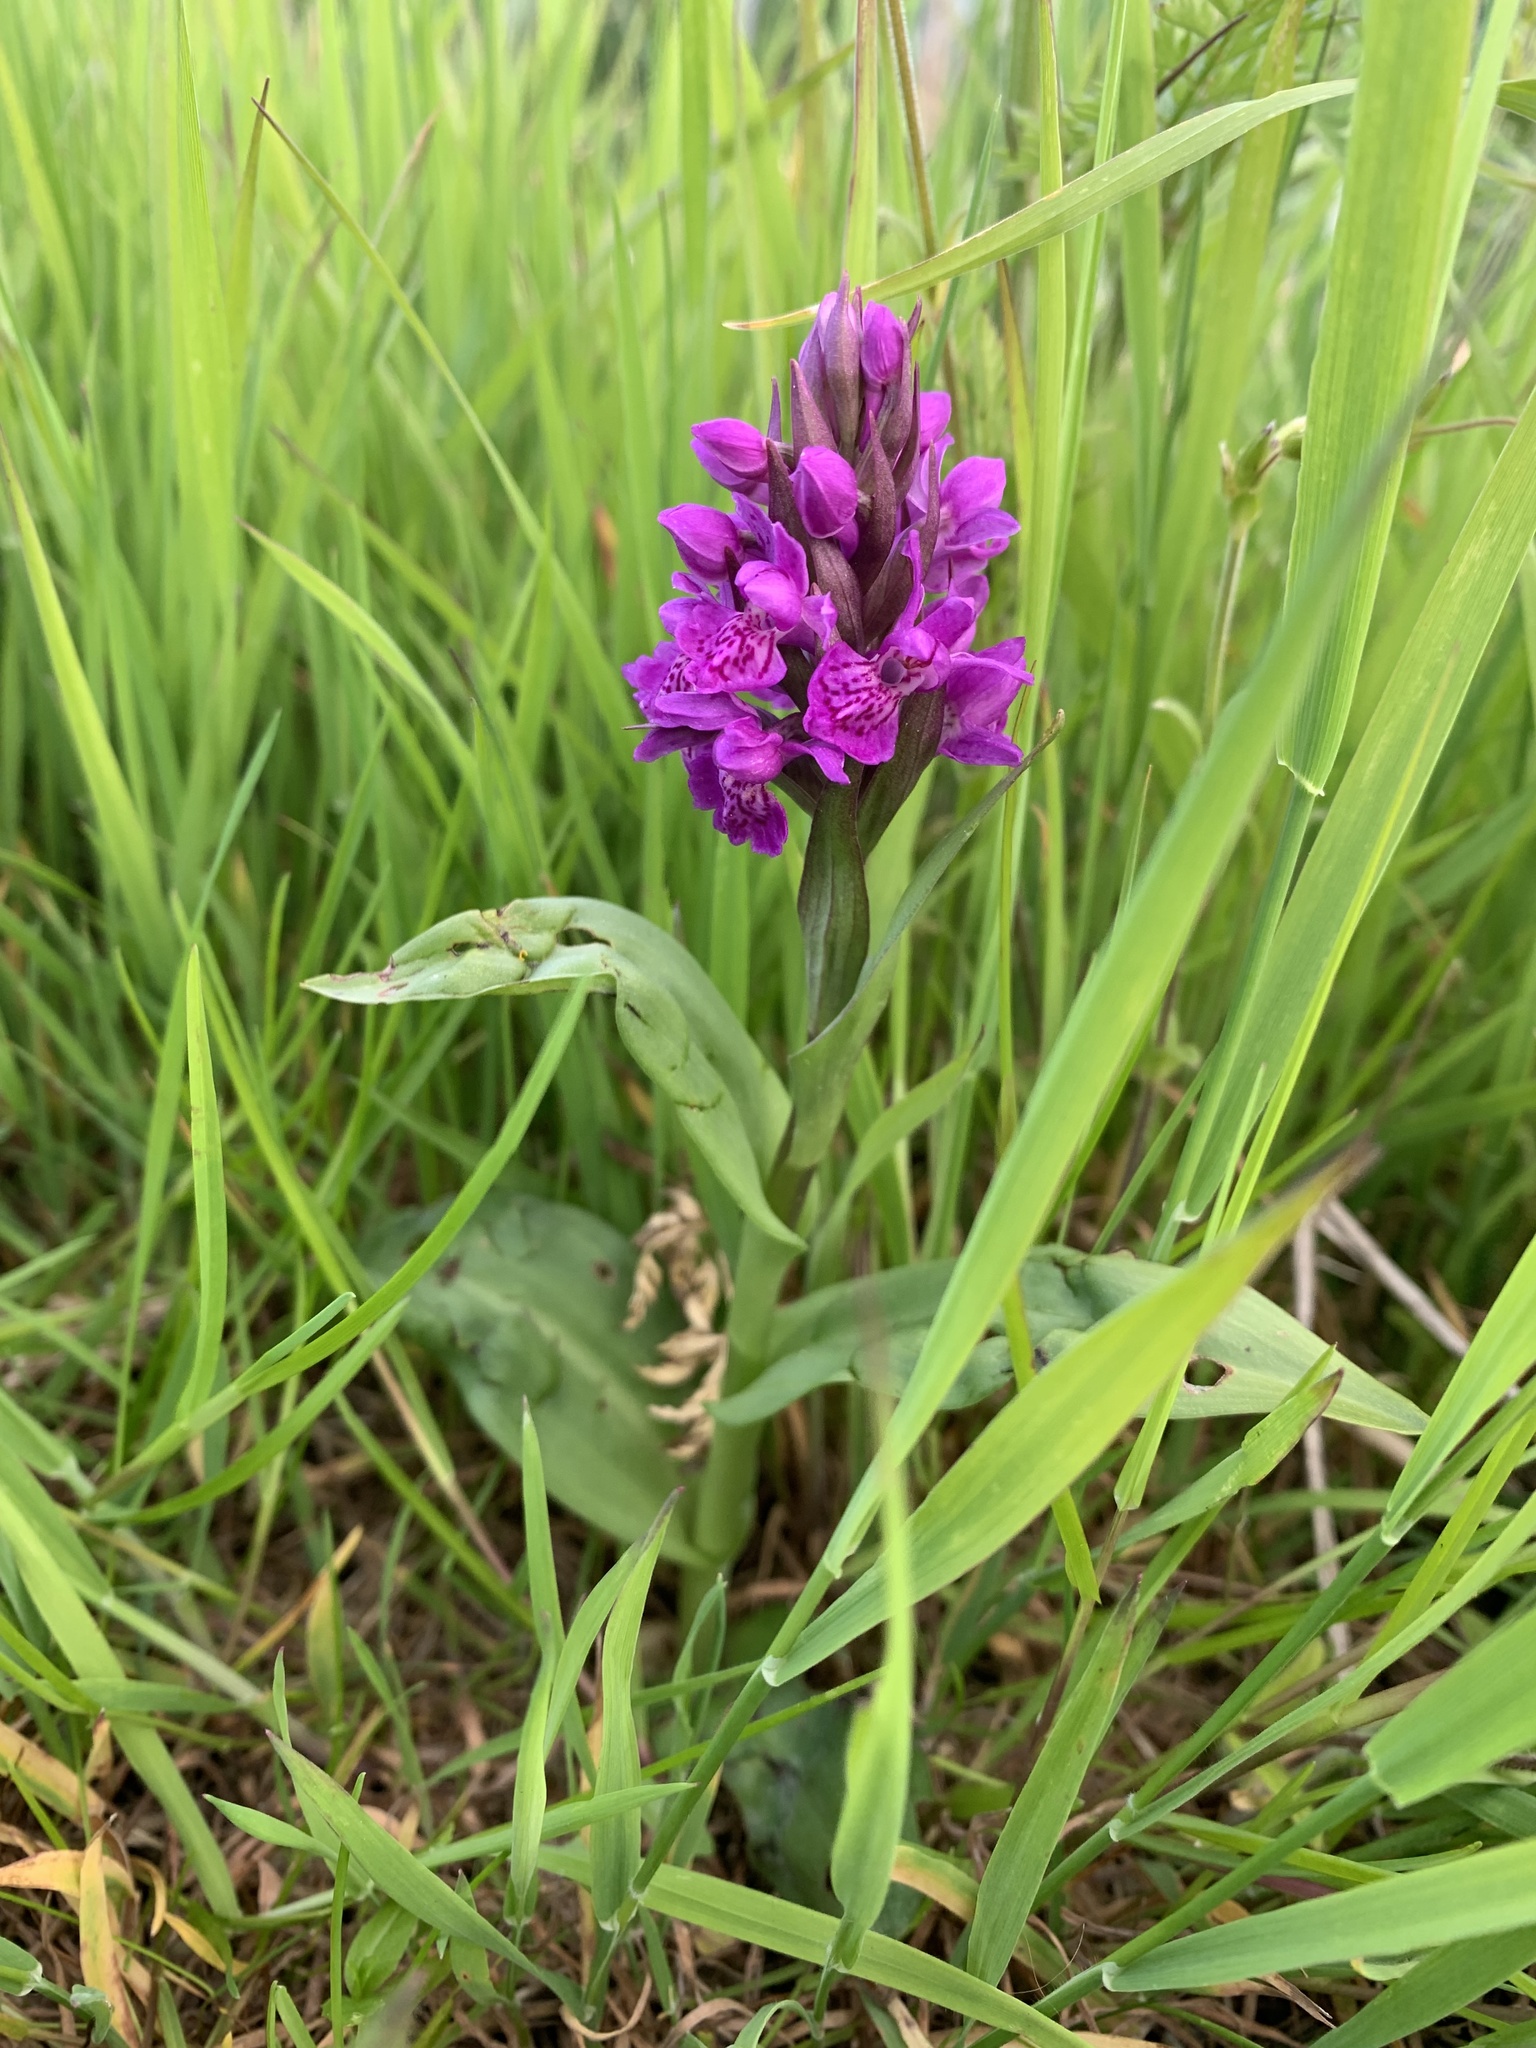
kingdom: Plantae
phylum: Tracheophyta
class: Liliopsida
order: Asparagales
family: Orchidaceae
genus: Dactylorhiza
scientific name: Dactylorhiza majalis
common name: Marsh orchid
